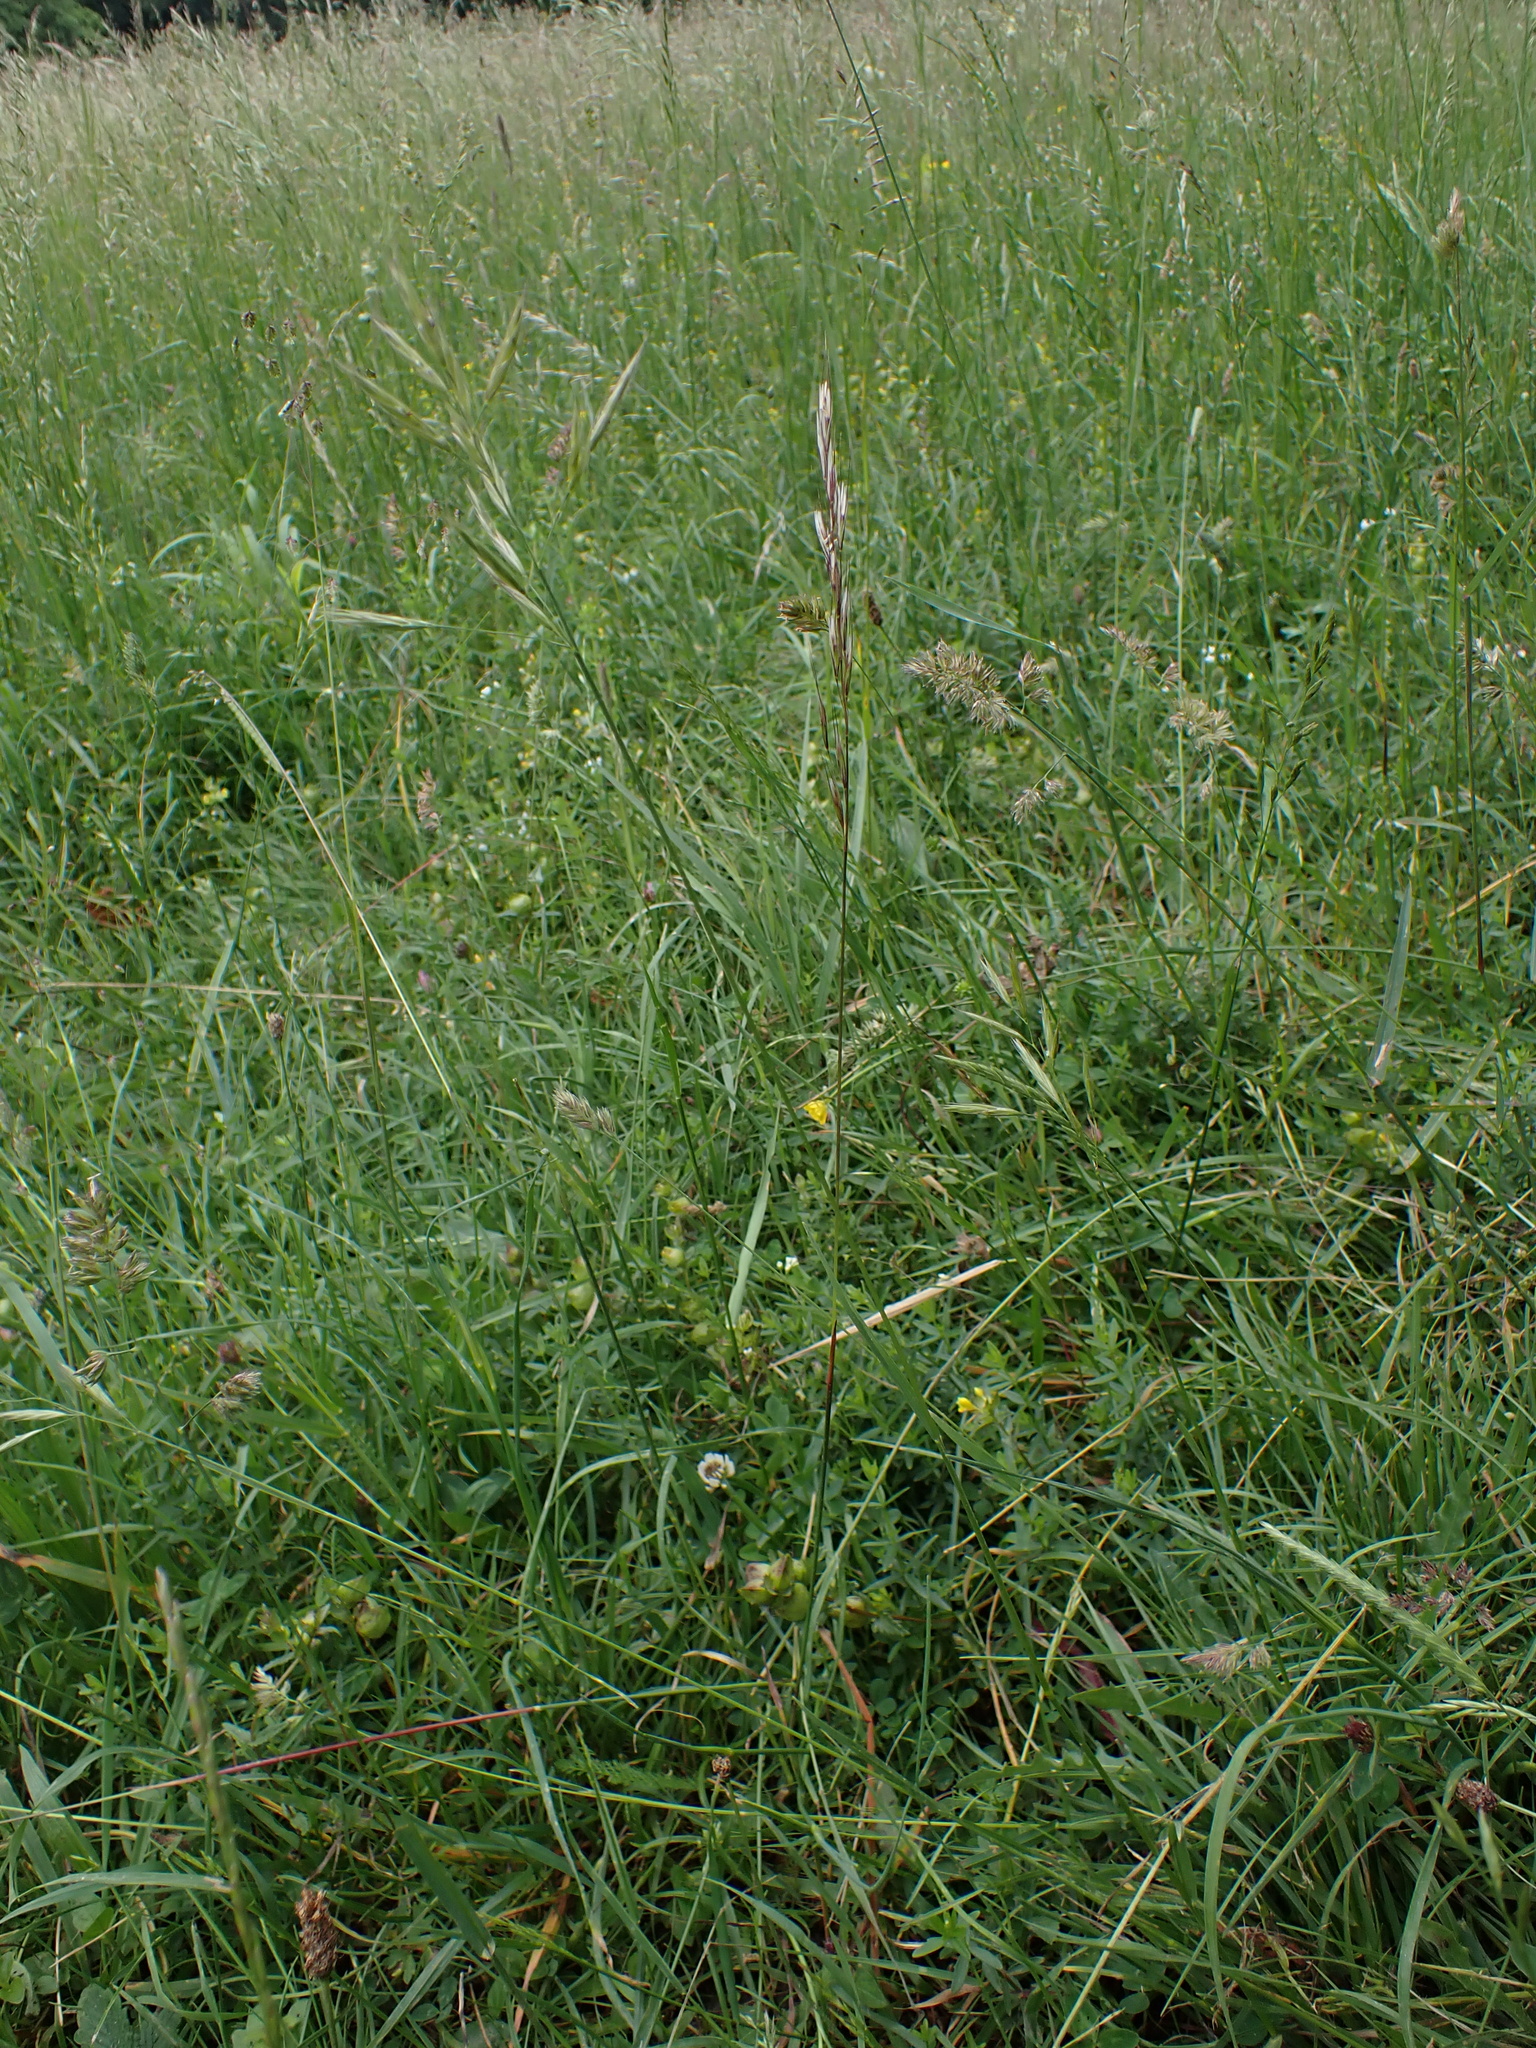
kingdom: Plantae
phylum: Tracheophyta
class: Liliopsida
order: Poales
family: Poaceae
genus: Avenula
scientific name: Avenula pubescens
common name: Downy alpine oatgrass
